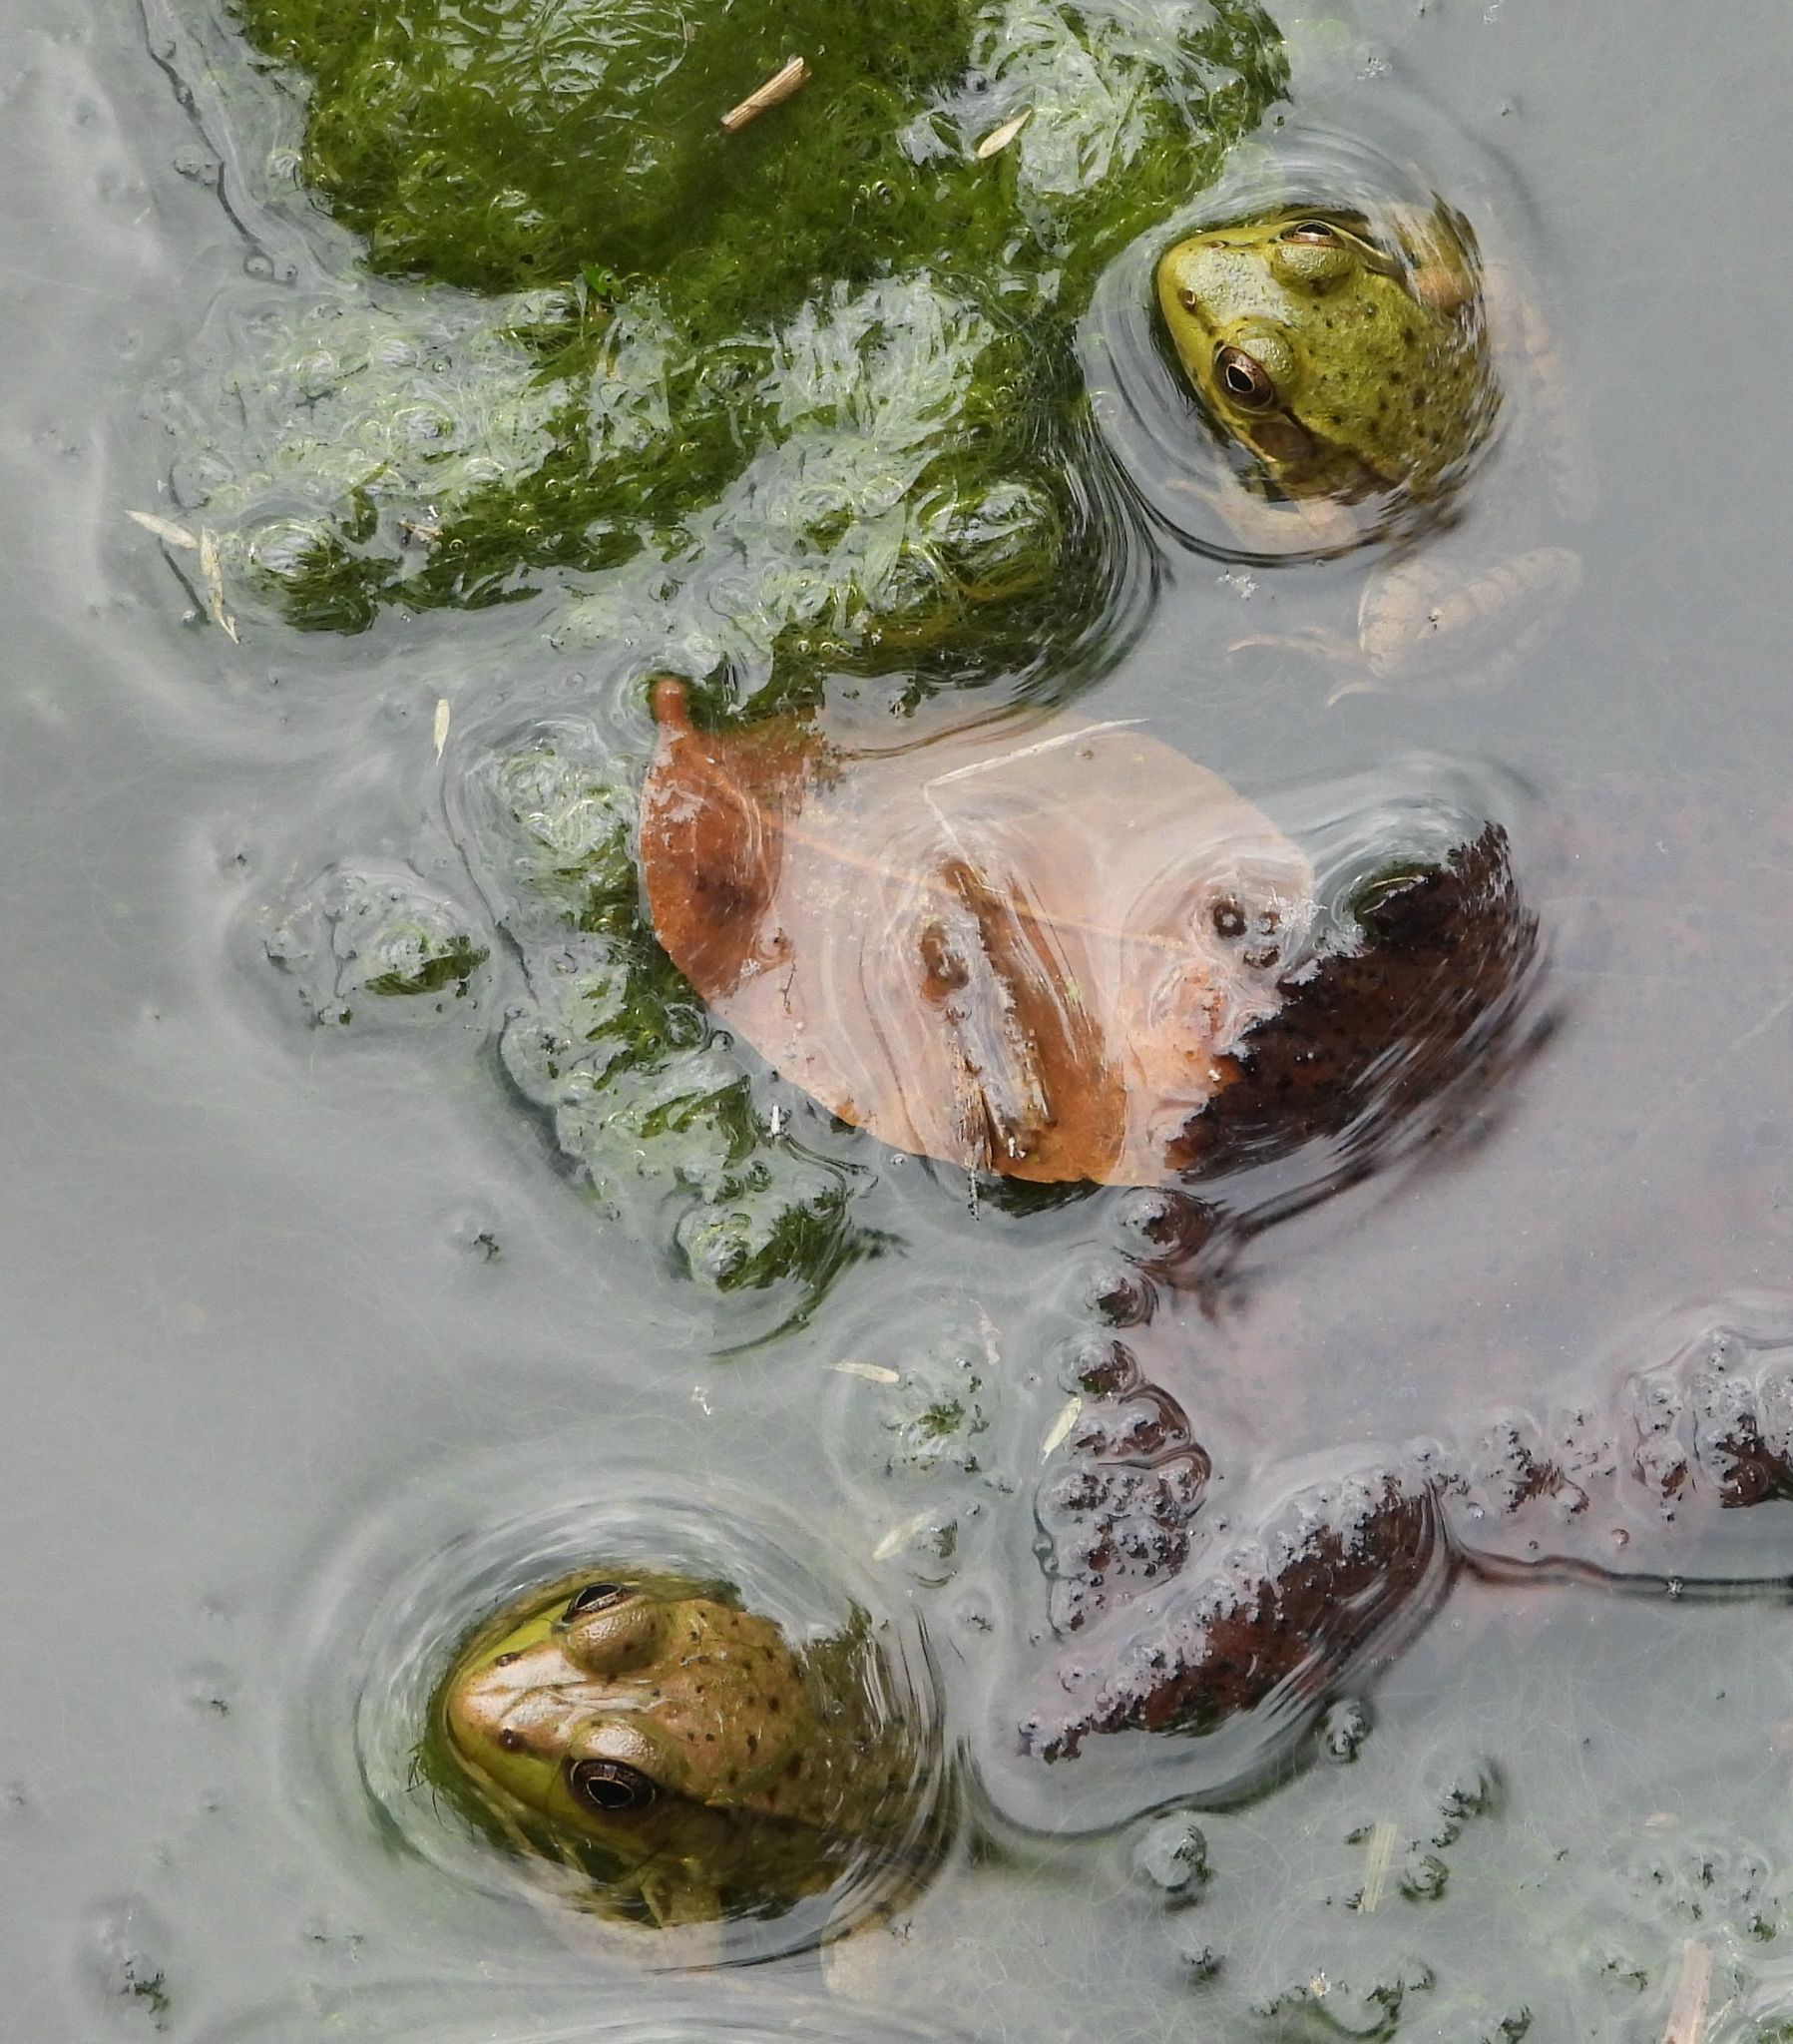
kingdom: Animalia
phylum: Chordata
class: Amphibia
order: Anura
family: Ranidae
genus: Lithobates
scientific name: Lithobates clamitans
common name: Green frog
